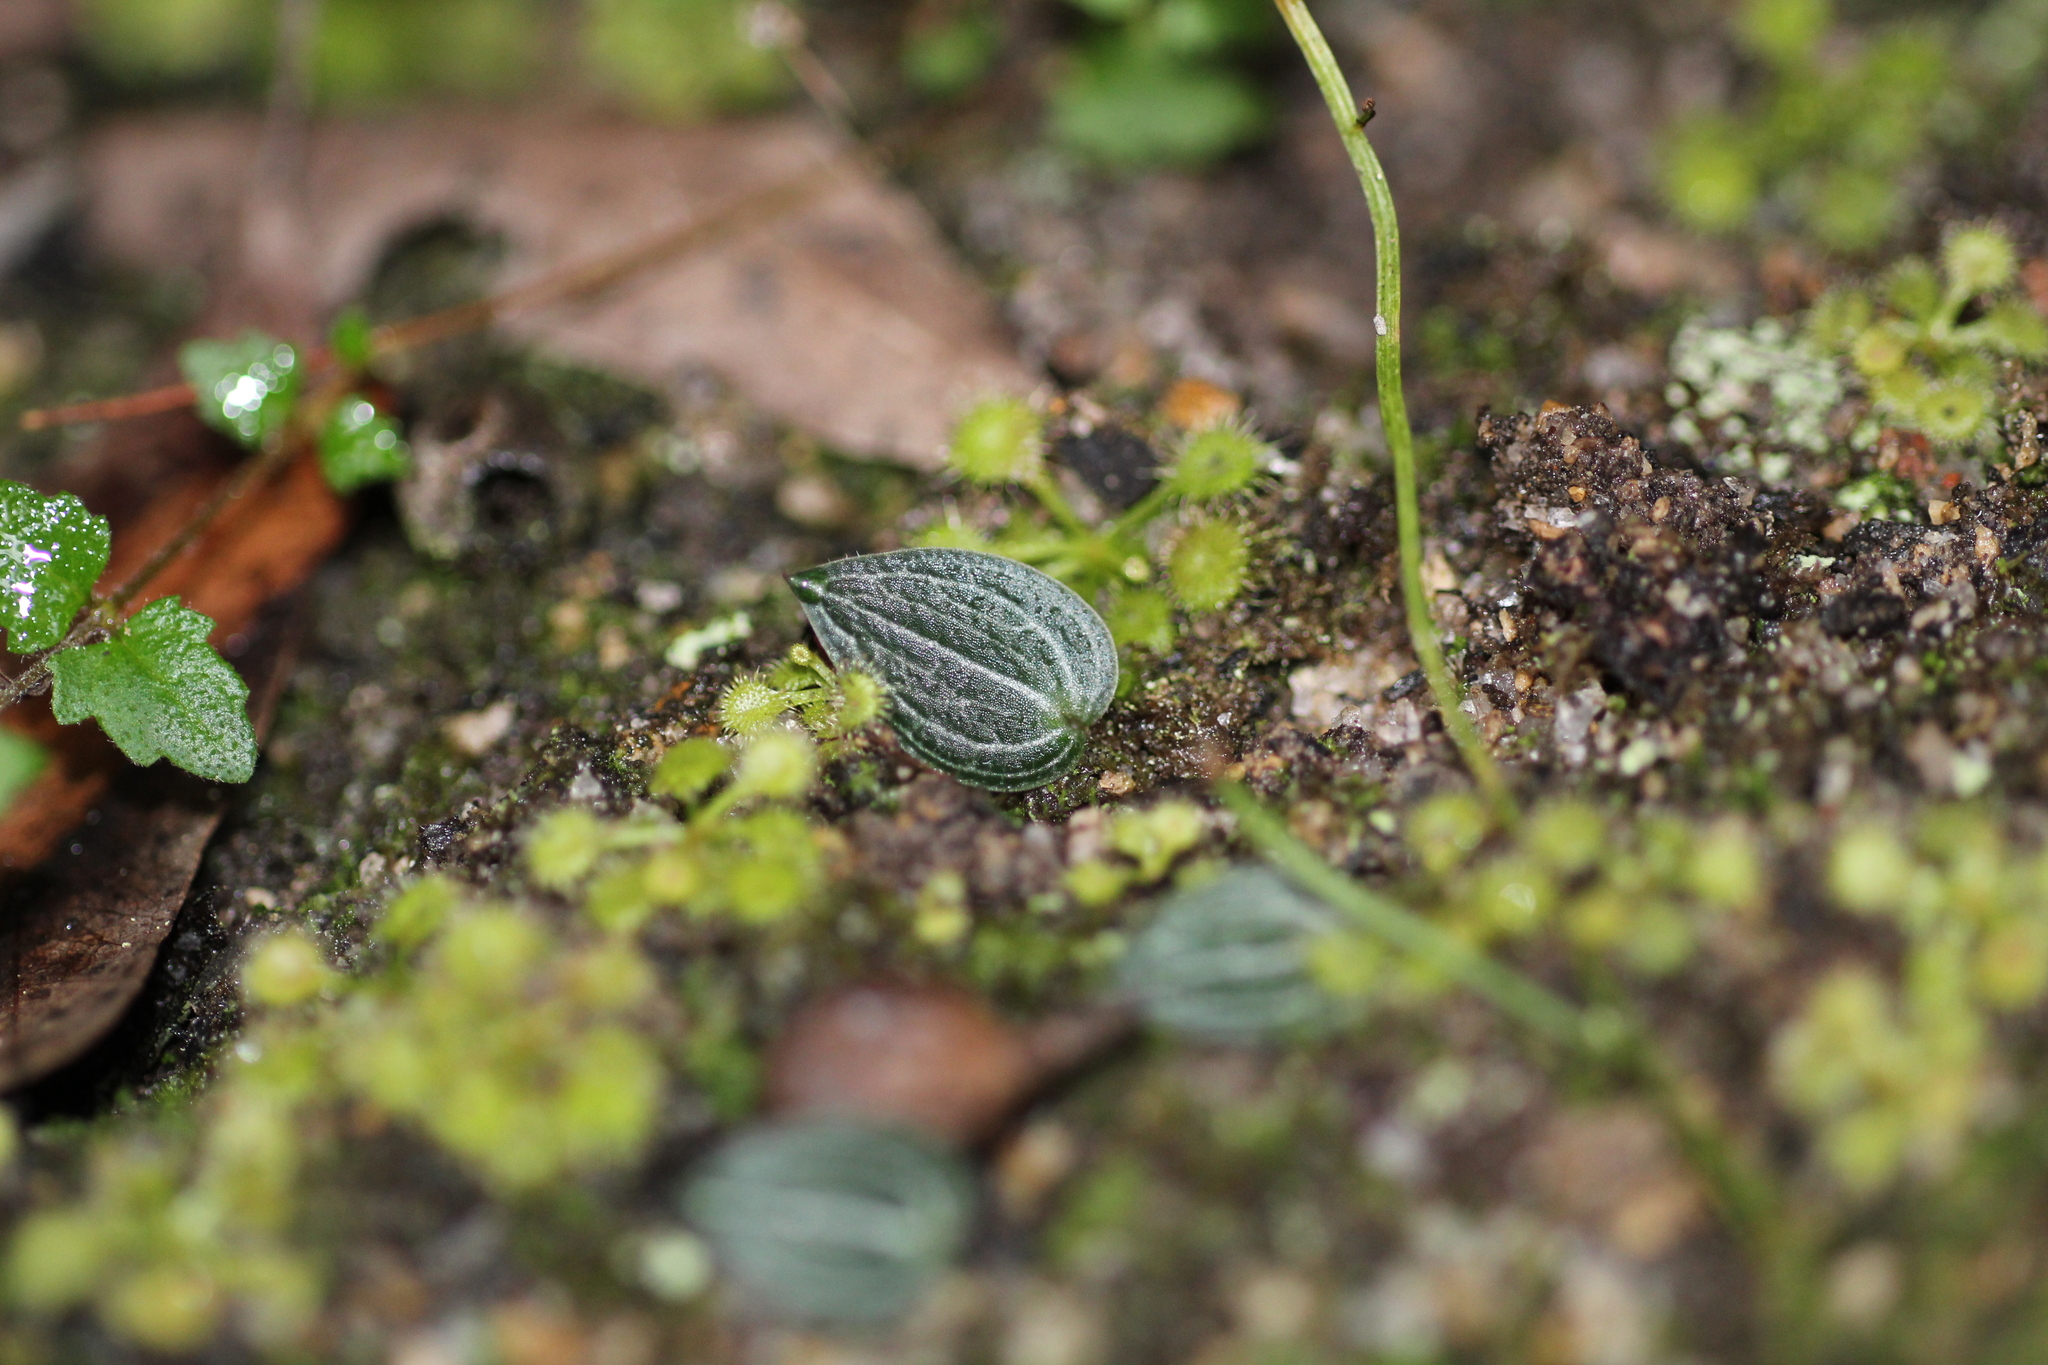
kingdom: Plantae
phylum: Tracheophyta
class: Liliopsida
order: Asparagales
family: Orchidaceae
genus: Eriochilus
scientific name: Eriochilus scaber
